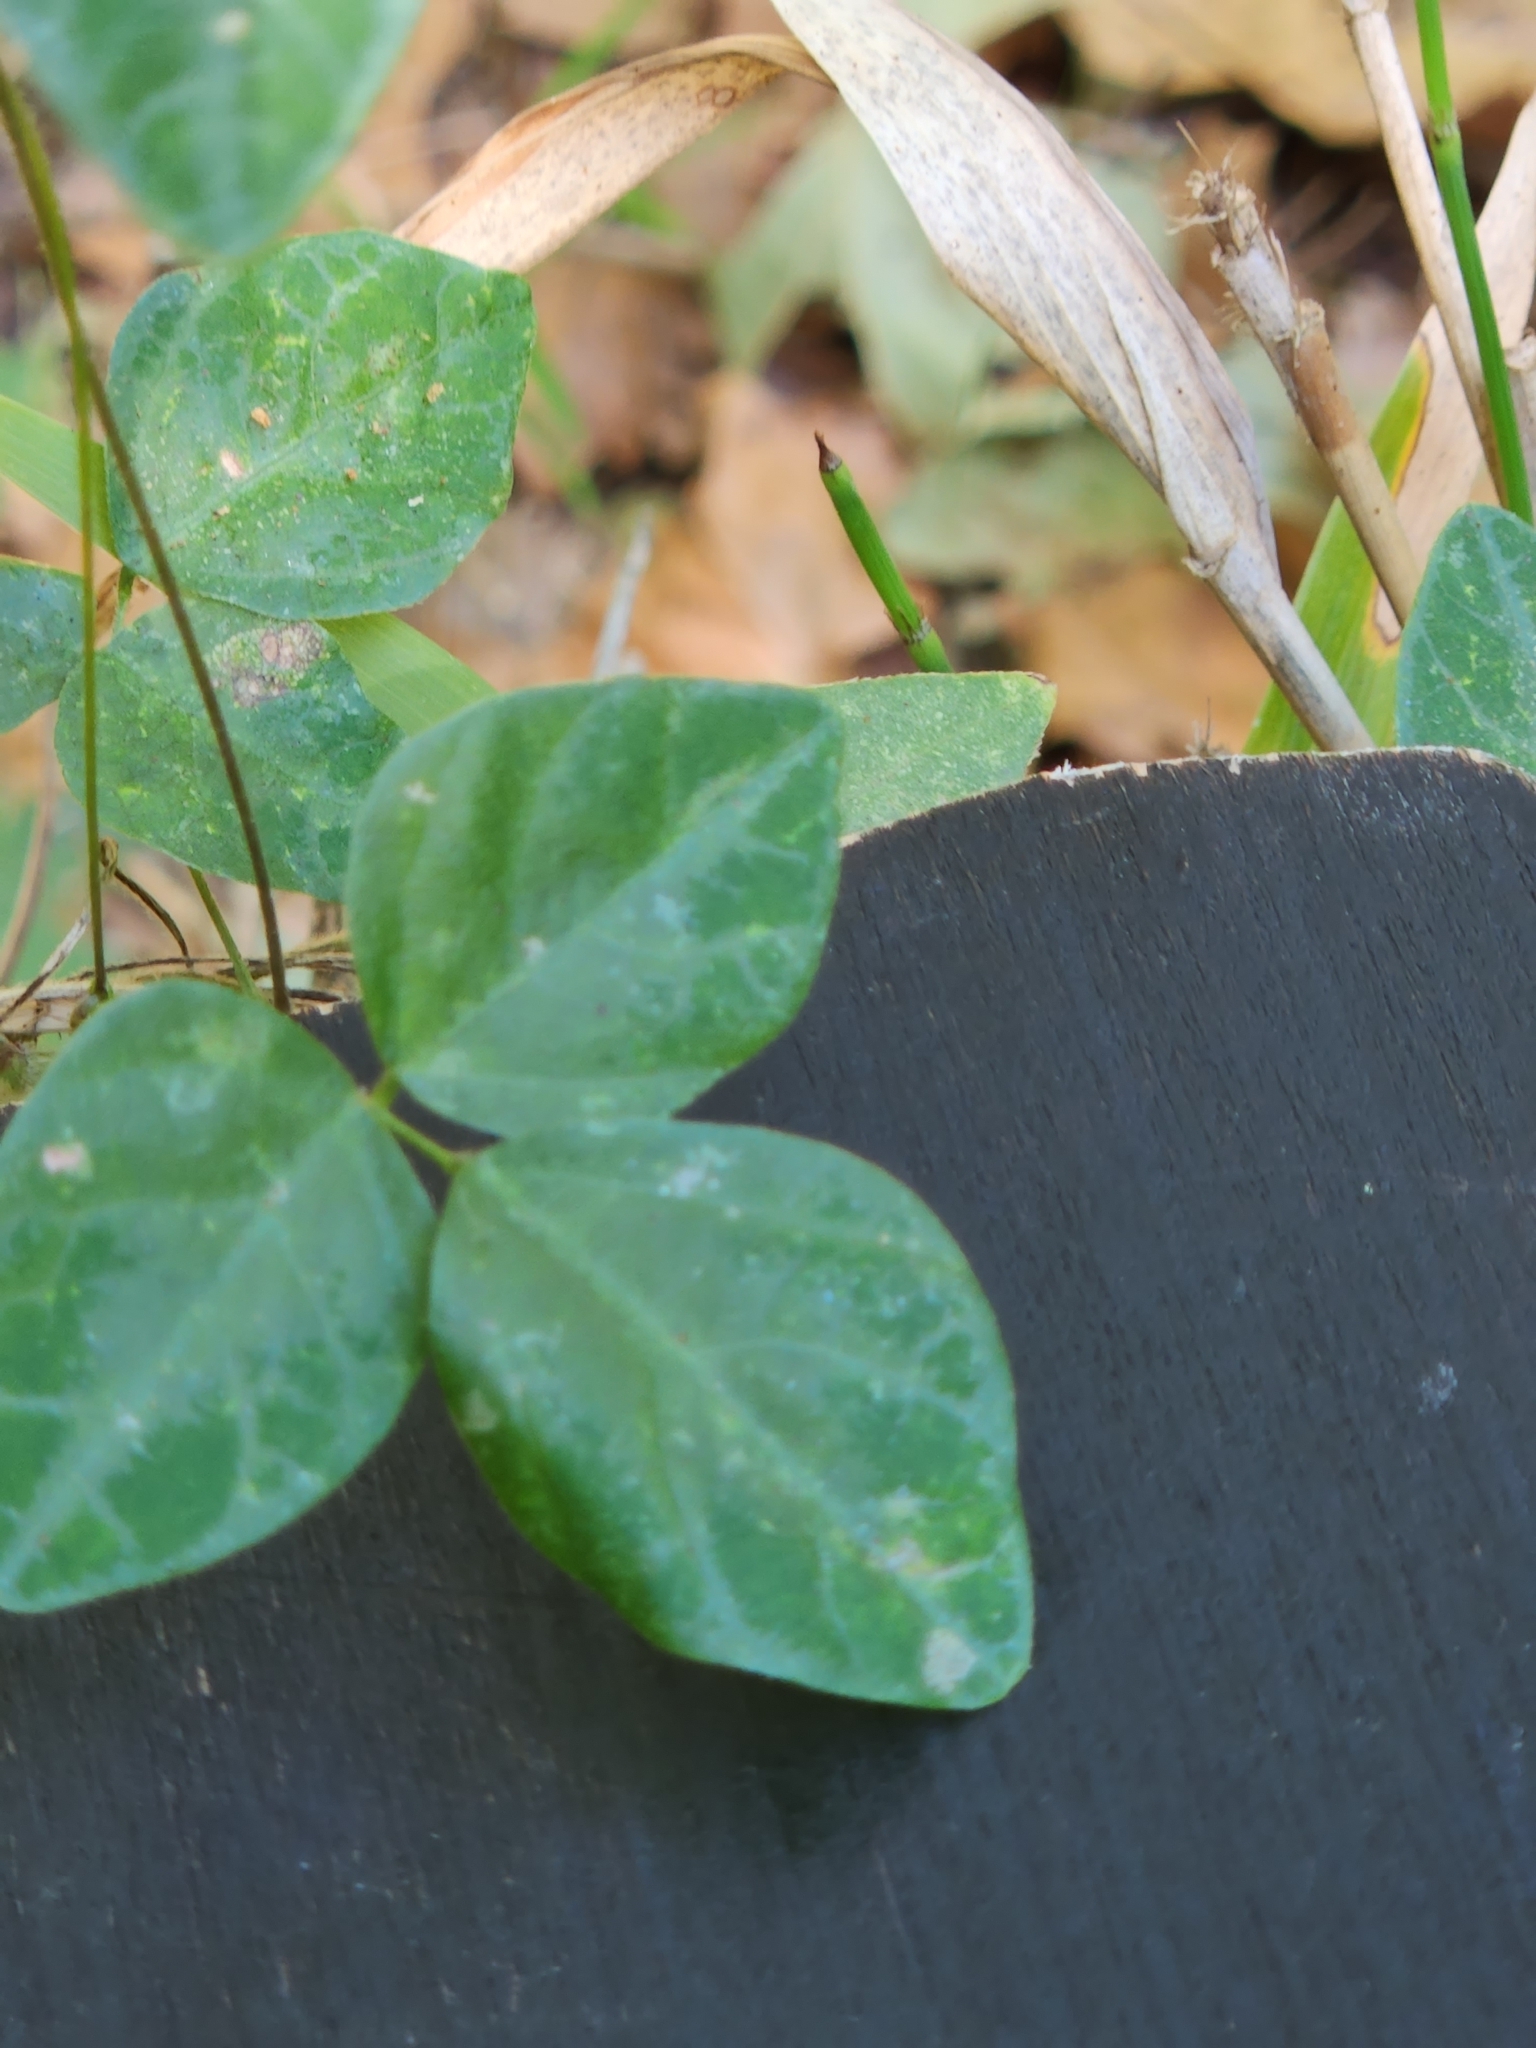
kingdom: Plantae
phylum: Tracheophyta
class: Magnoliopsida
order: Fabales
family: Fabaceae
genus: Galactia
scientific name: Galactia texana
